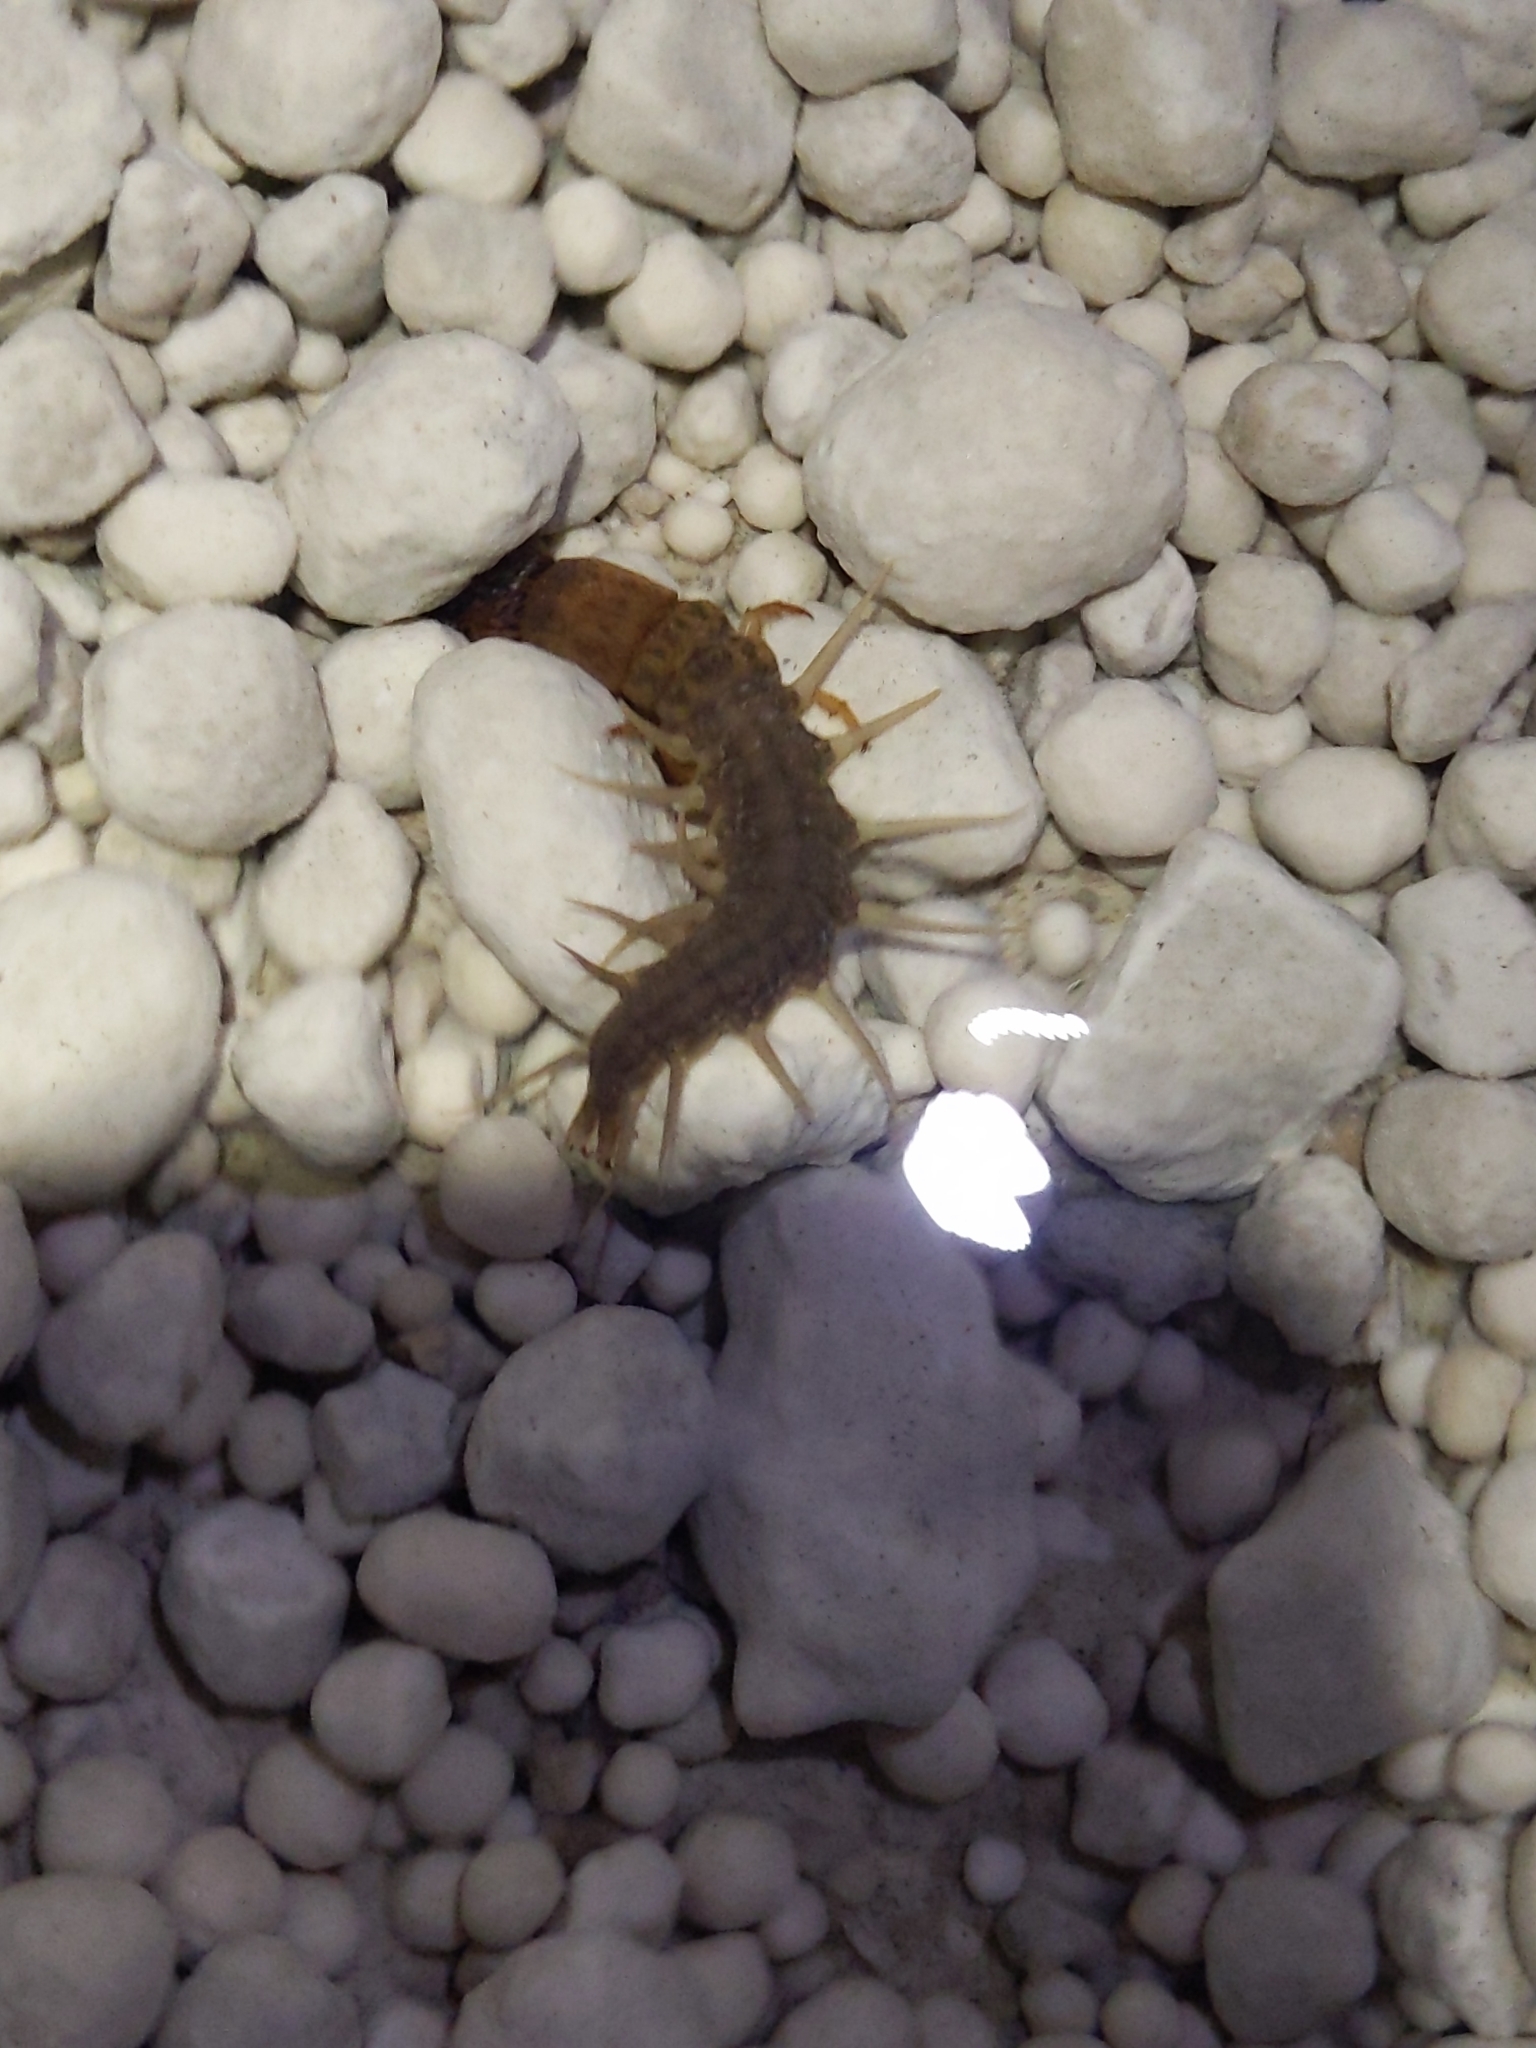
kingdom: Animalia
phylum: Arthropoda
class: Insecta
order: Megaloptera
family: Corydalidae
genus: Neohermes
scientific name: Neohermes filicornis
